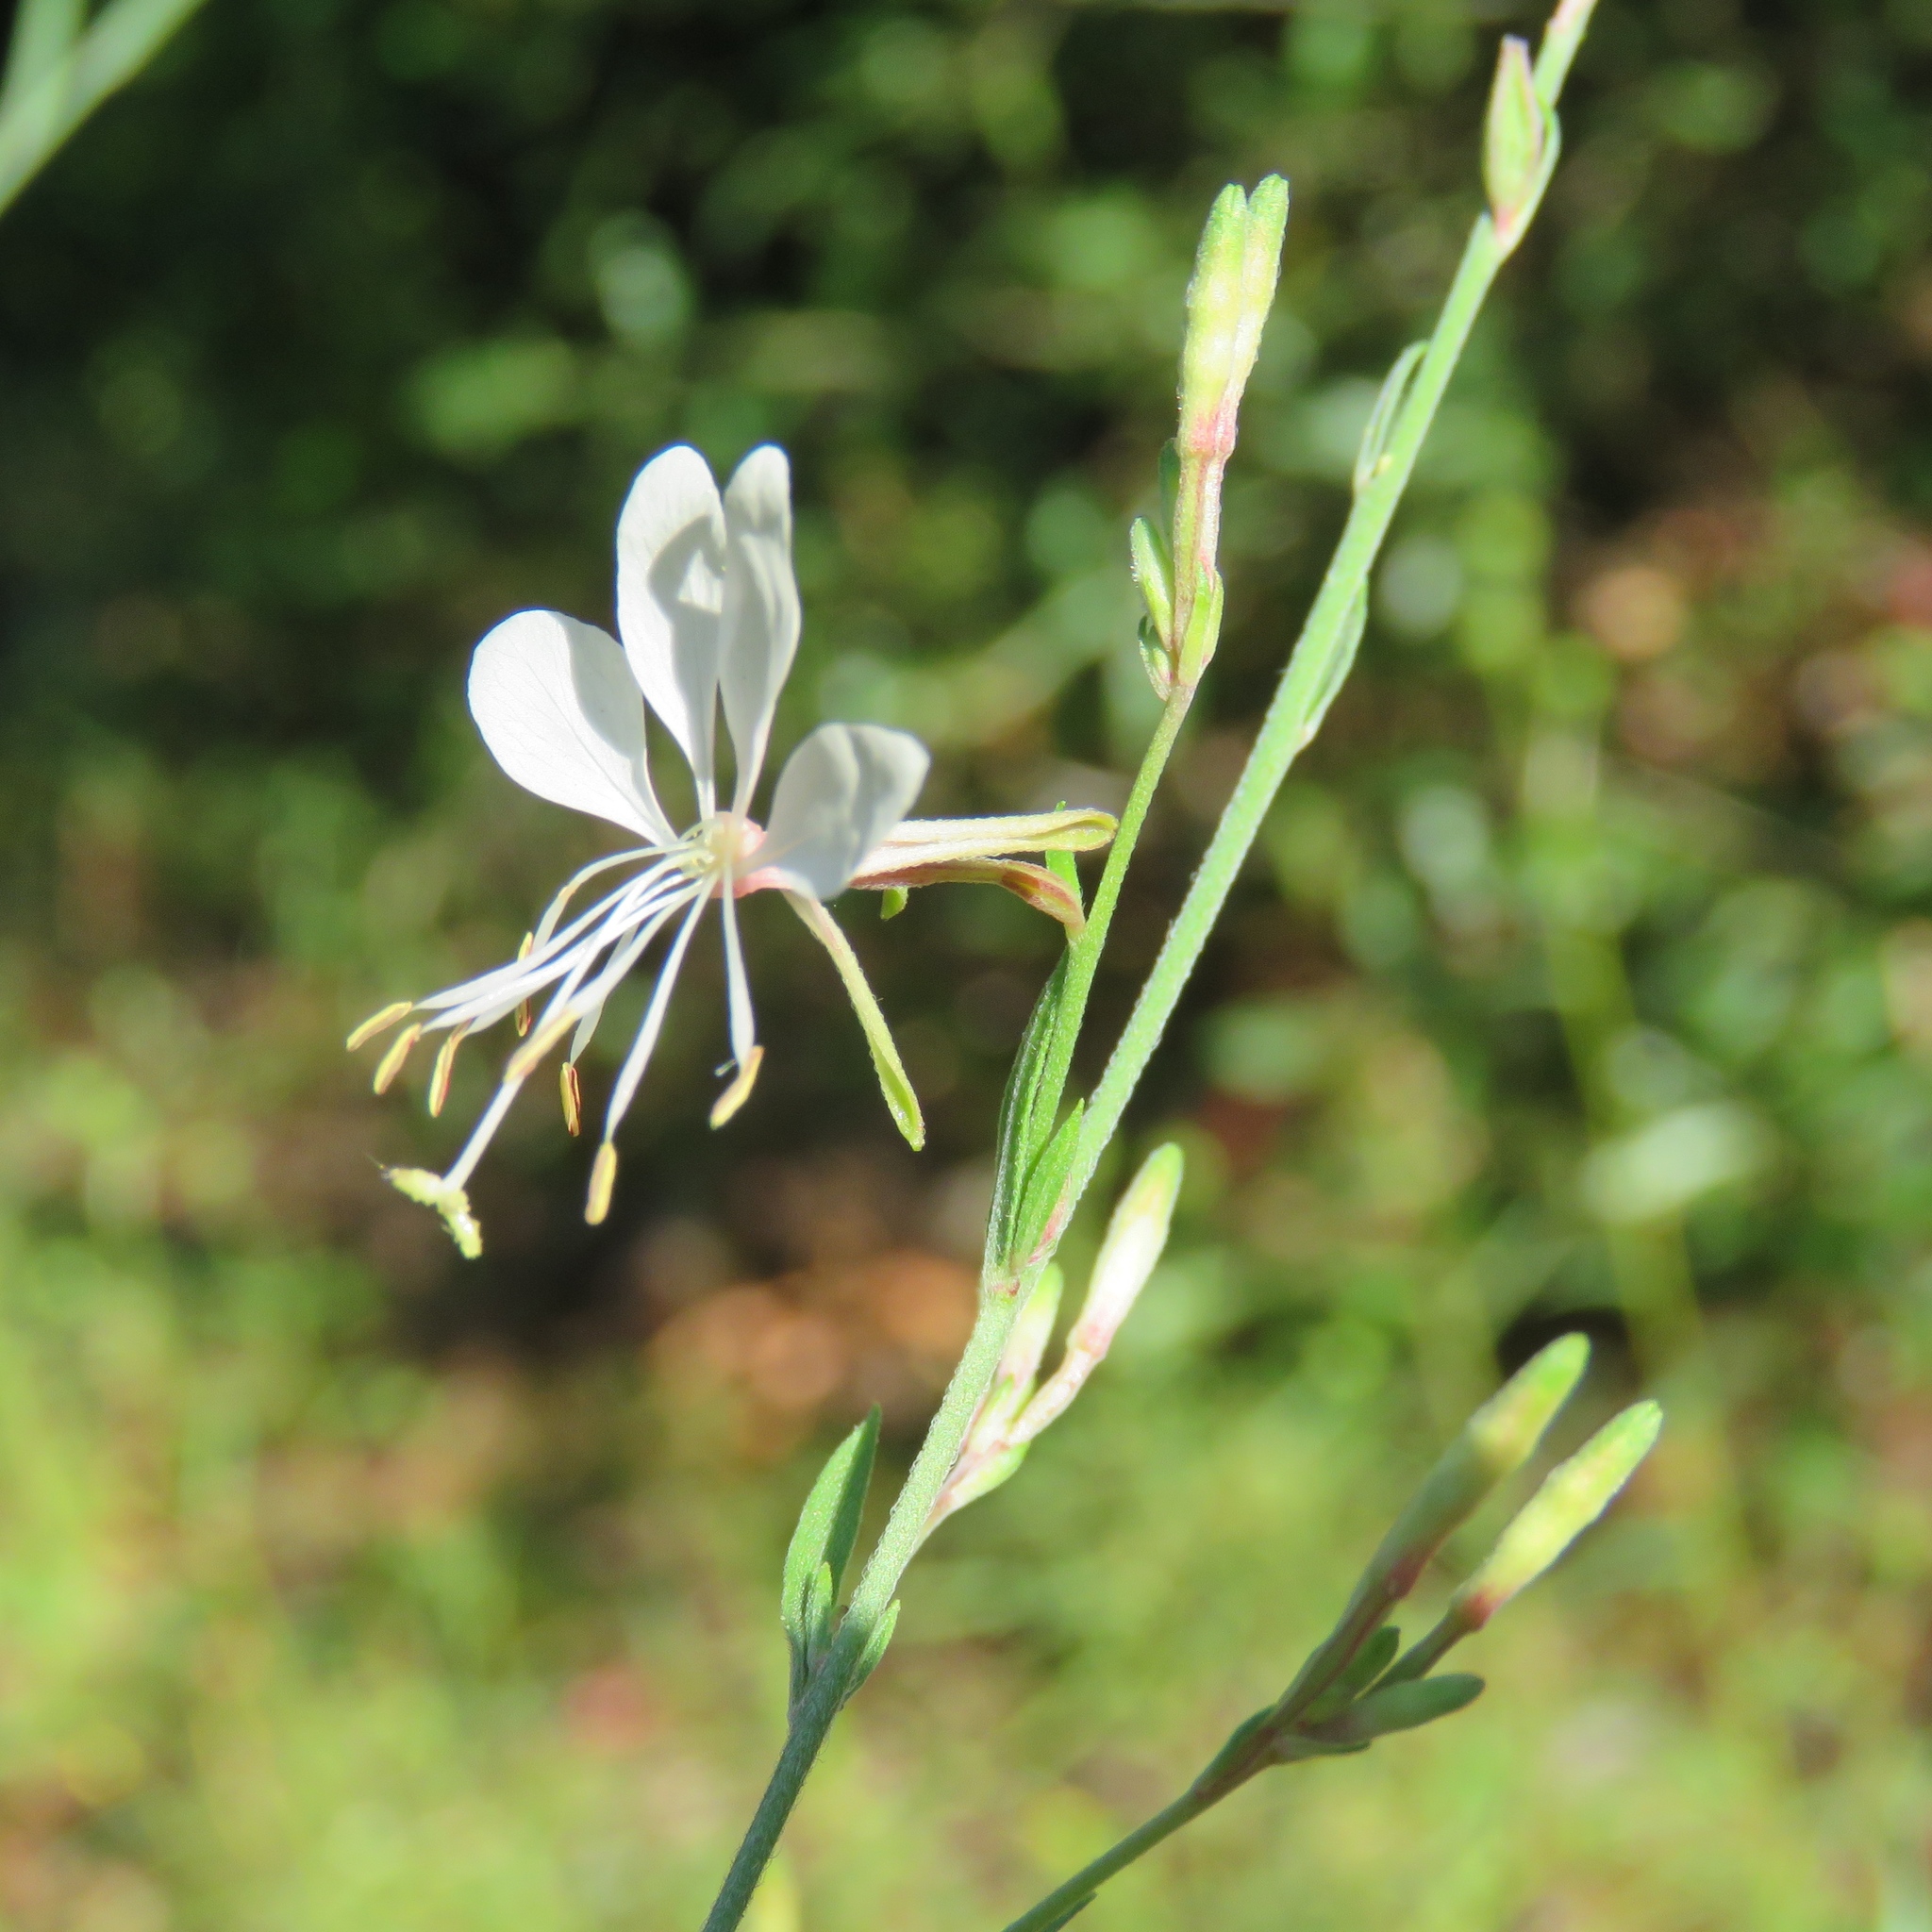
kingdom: Plantae
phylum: Tracheophyta
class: Magnoliopsida
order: Myrtales
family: Onagraceae
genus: Oenothera
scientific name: Oenothera lindheimeri
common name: Lindheimer's beeblossom
